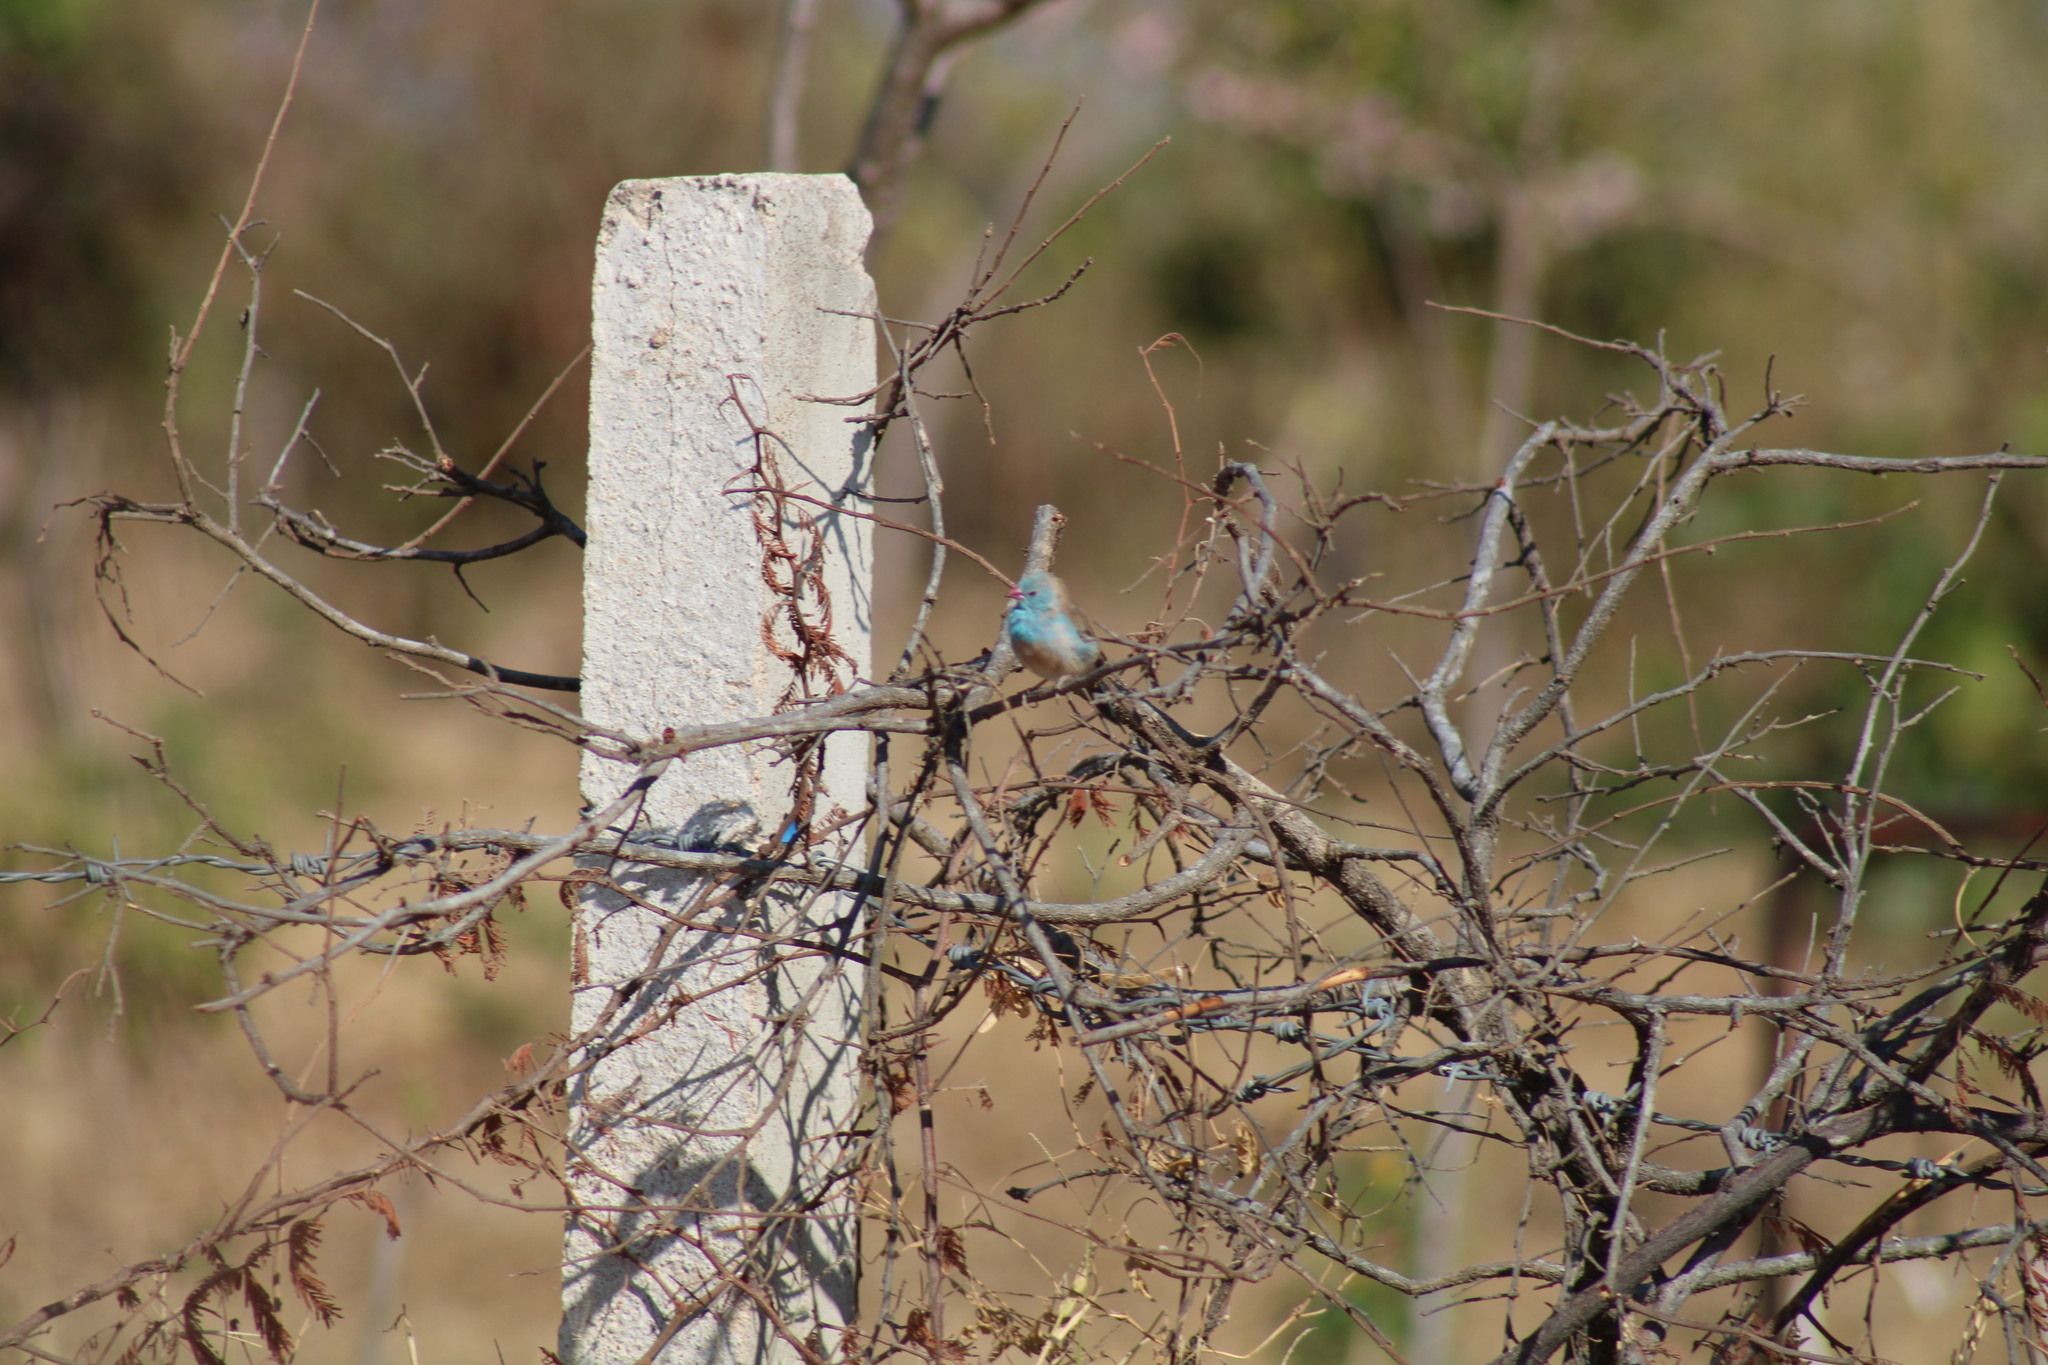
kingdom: Animalia
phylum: Chordata
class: Aves
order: Passeriformes
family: Estrildidae
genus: Uraeginthus
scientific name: Uraeginthus cyanocephalus
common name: Blue-capped cordon-bleu
